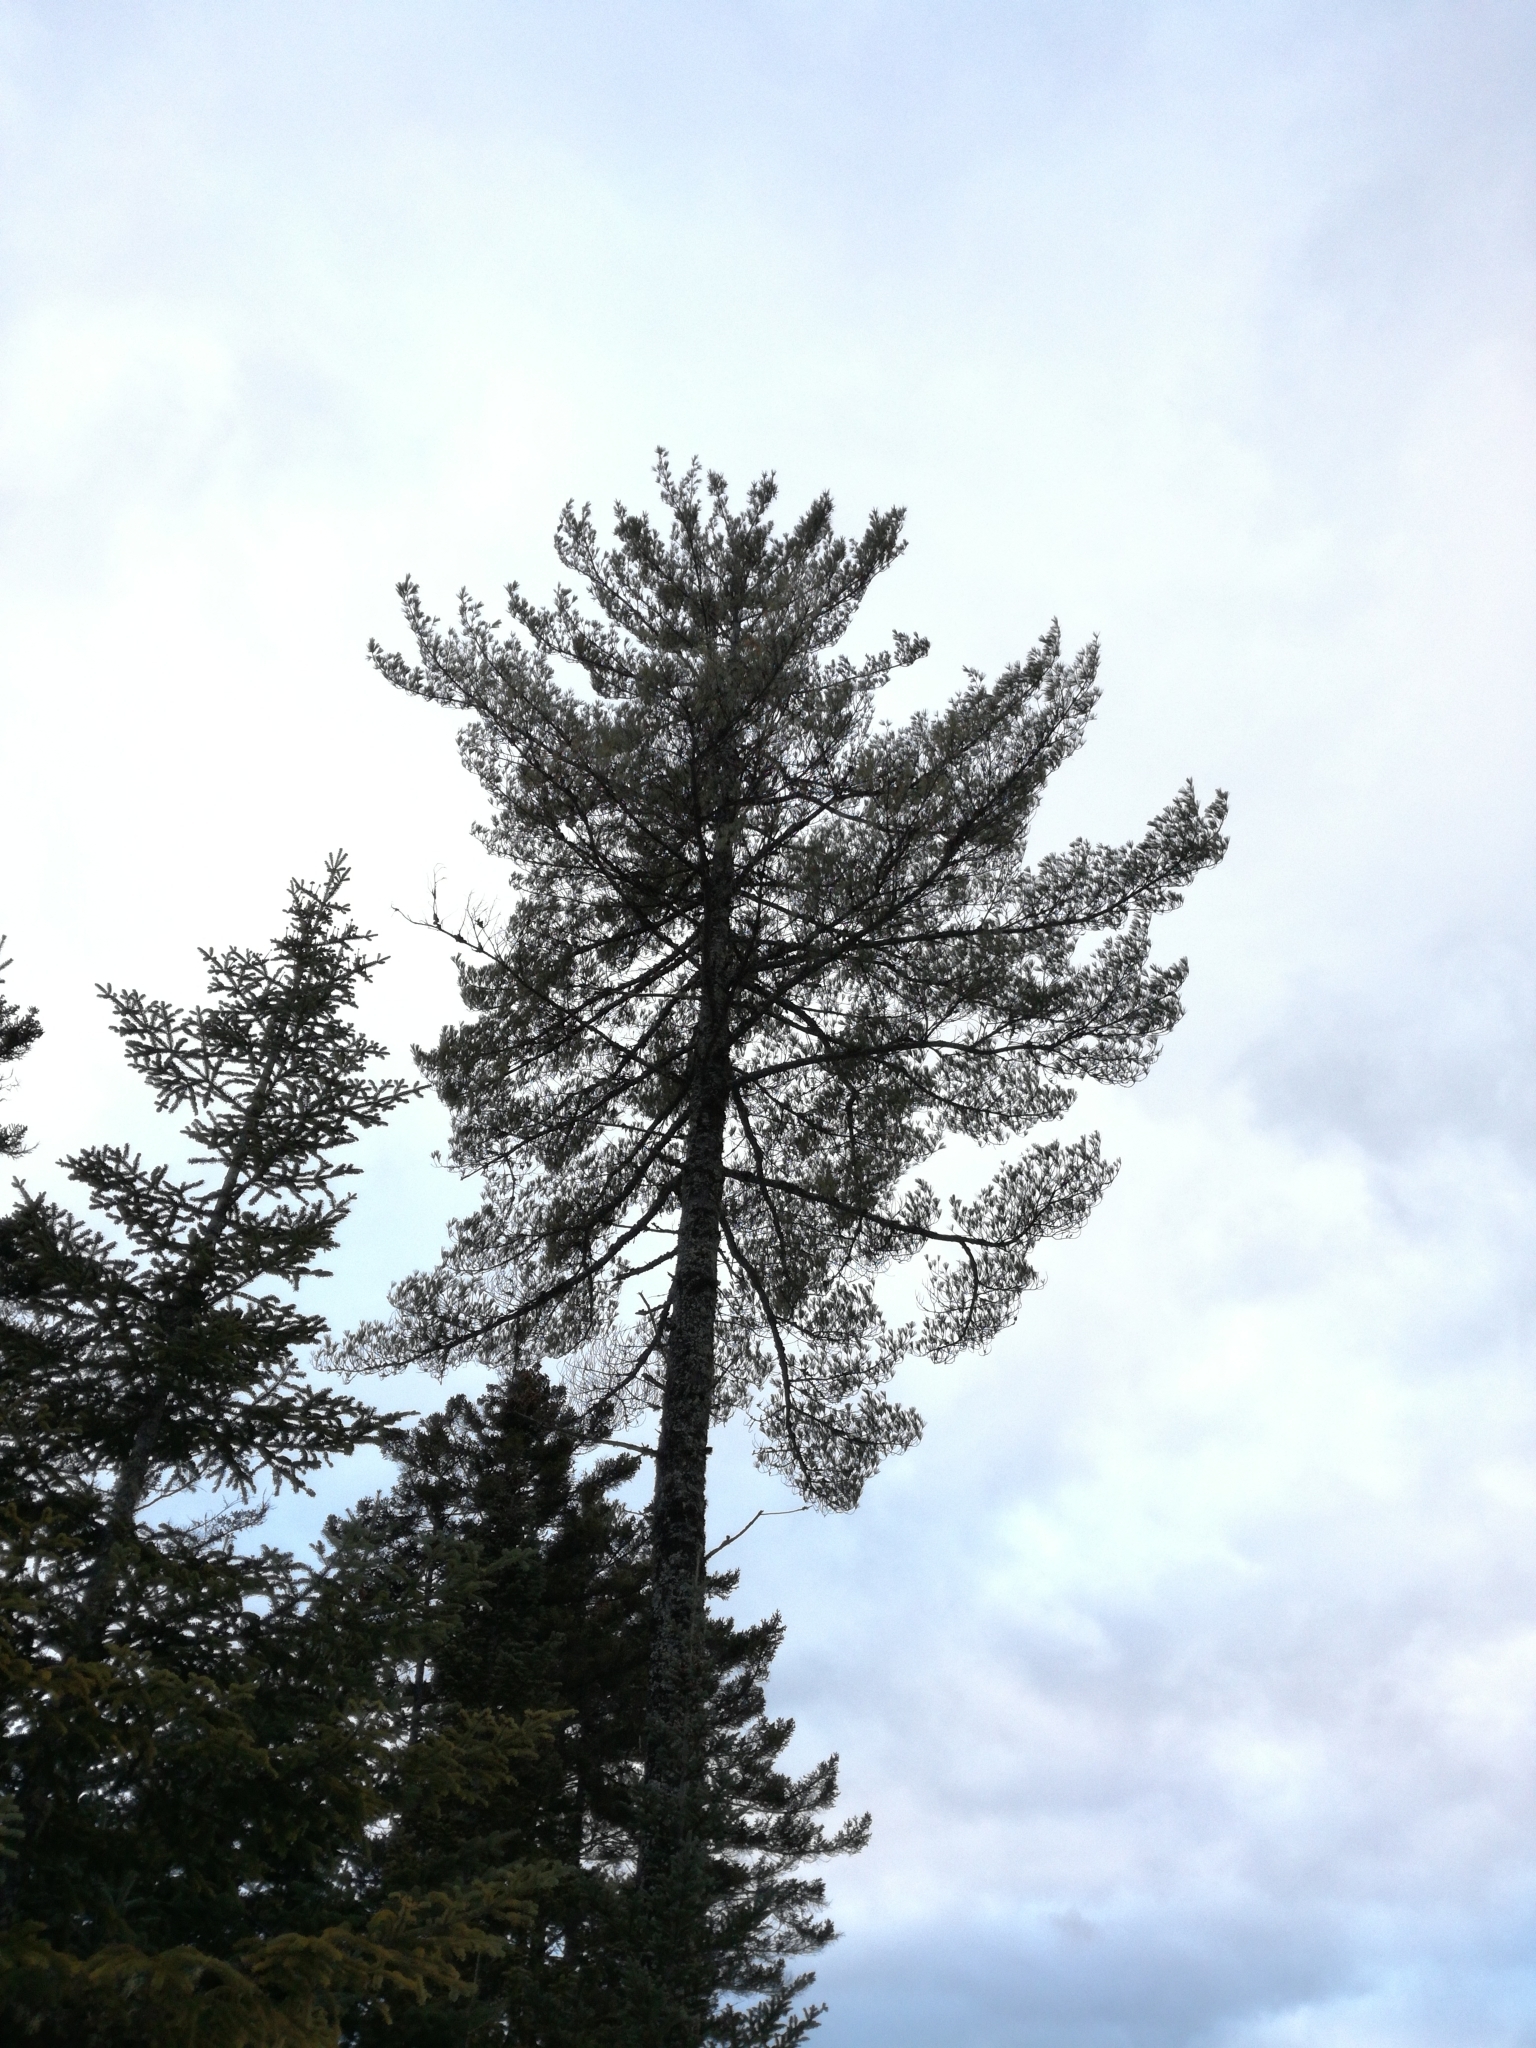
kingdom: Plantae
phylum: Tracheophyta
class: Pinopsida
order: Pinales
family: Pinaceae
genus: Pinus
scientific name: Pinus strobus
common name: Weymouth pine
